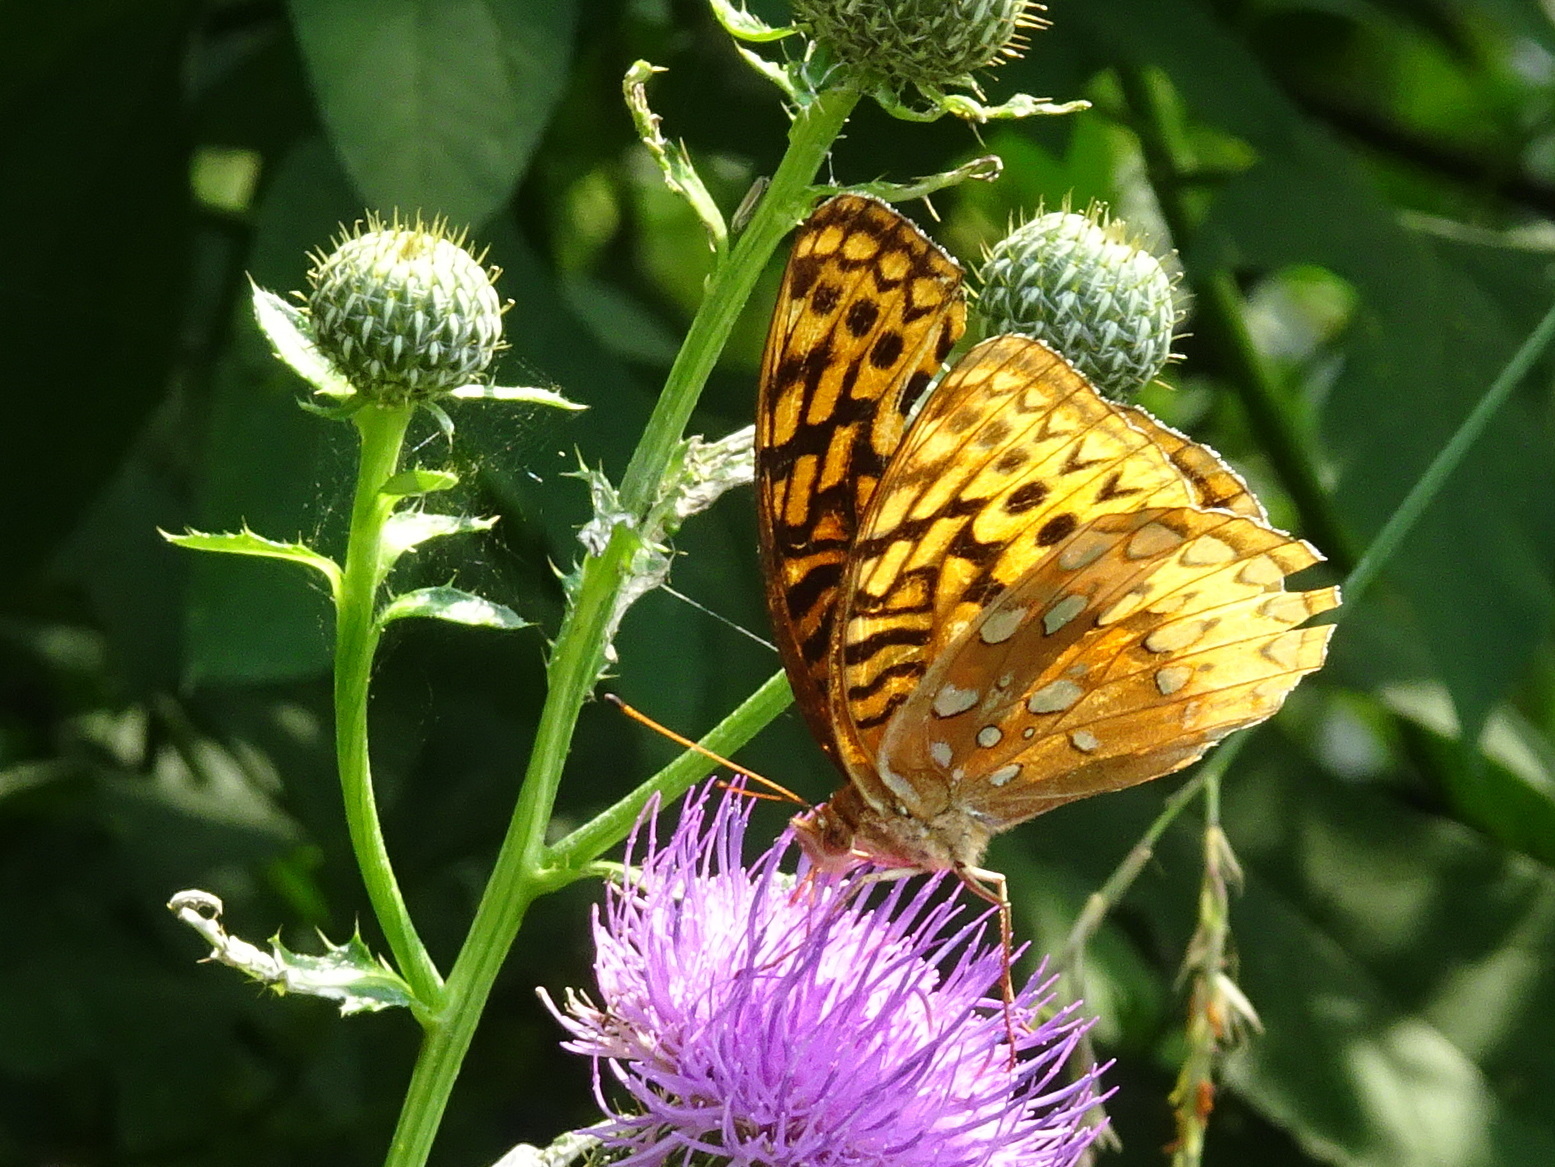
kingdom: Animalia
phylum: Arthropoda
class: Insecta
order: Lepidoptera
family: Nymphalidae
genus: Speyeria
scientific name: Speyeria cybele
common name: Great spangled fritillary
